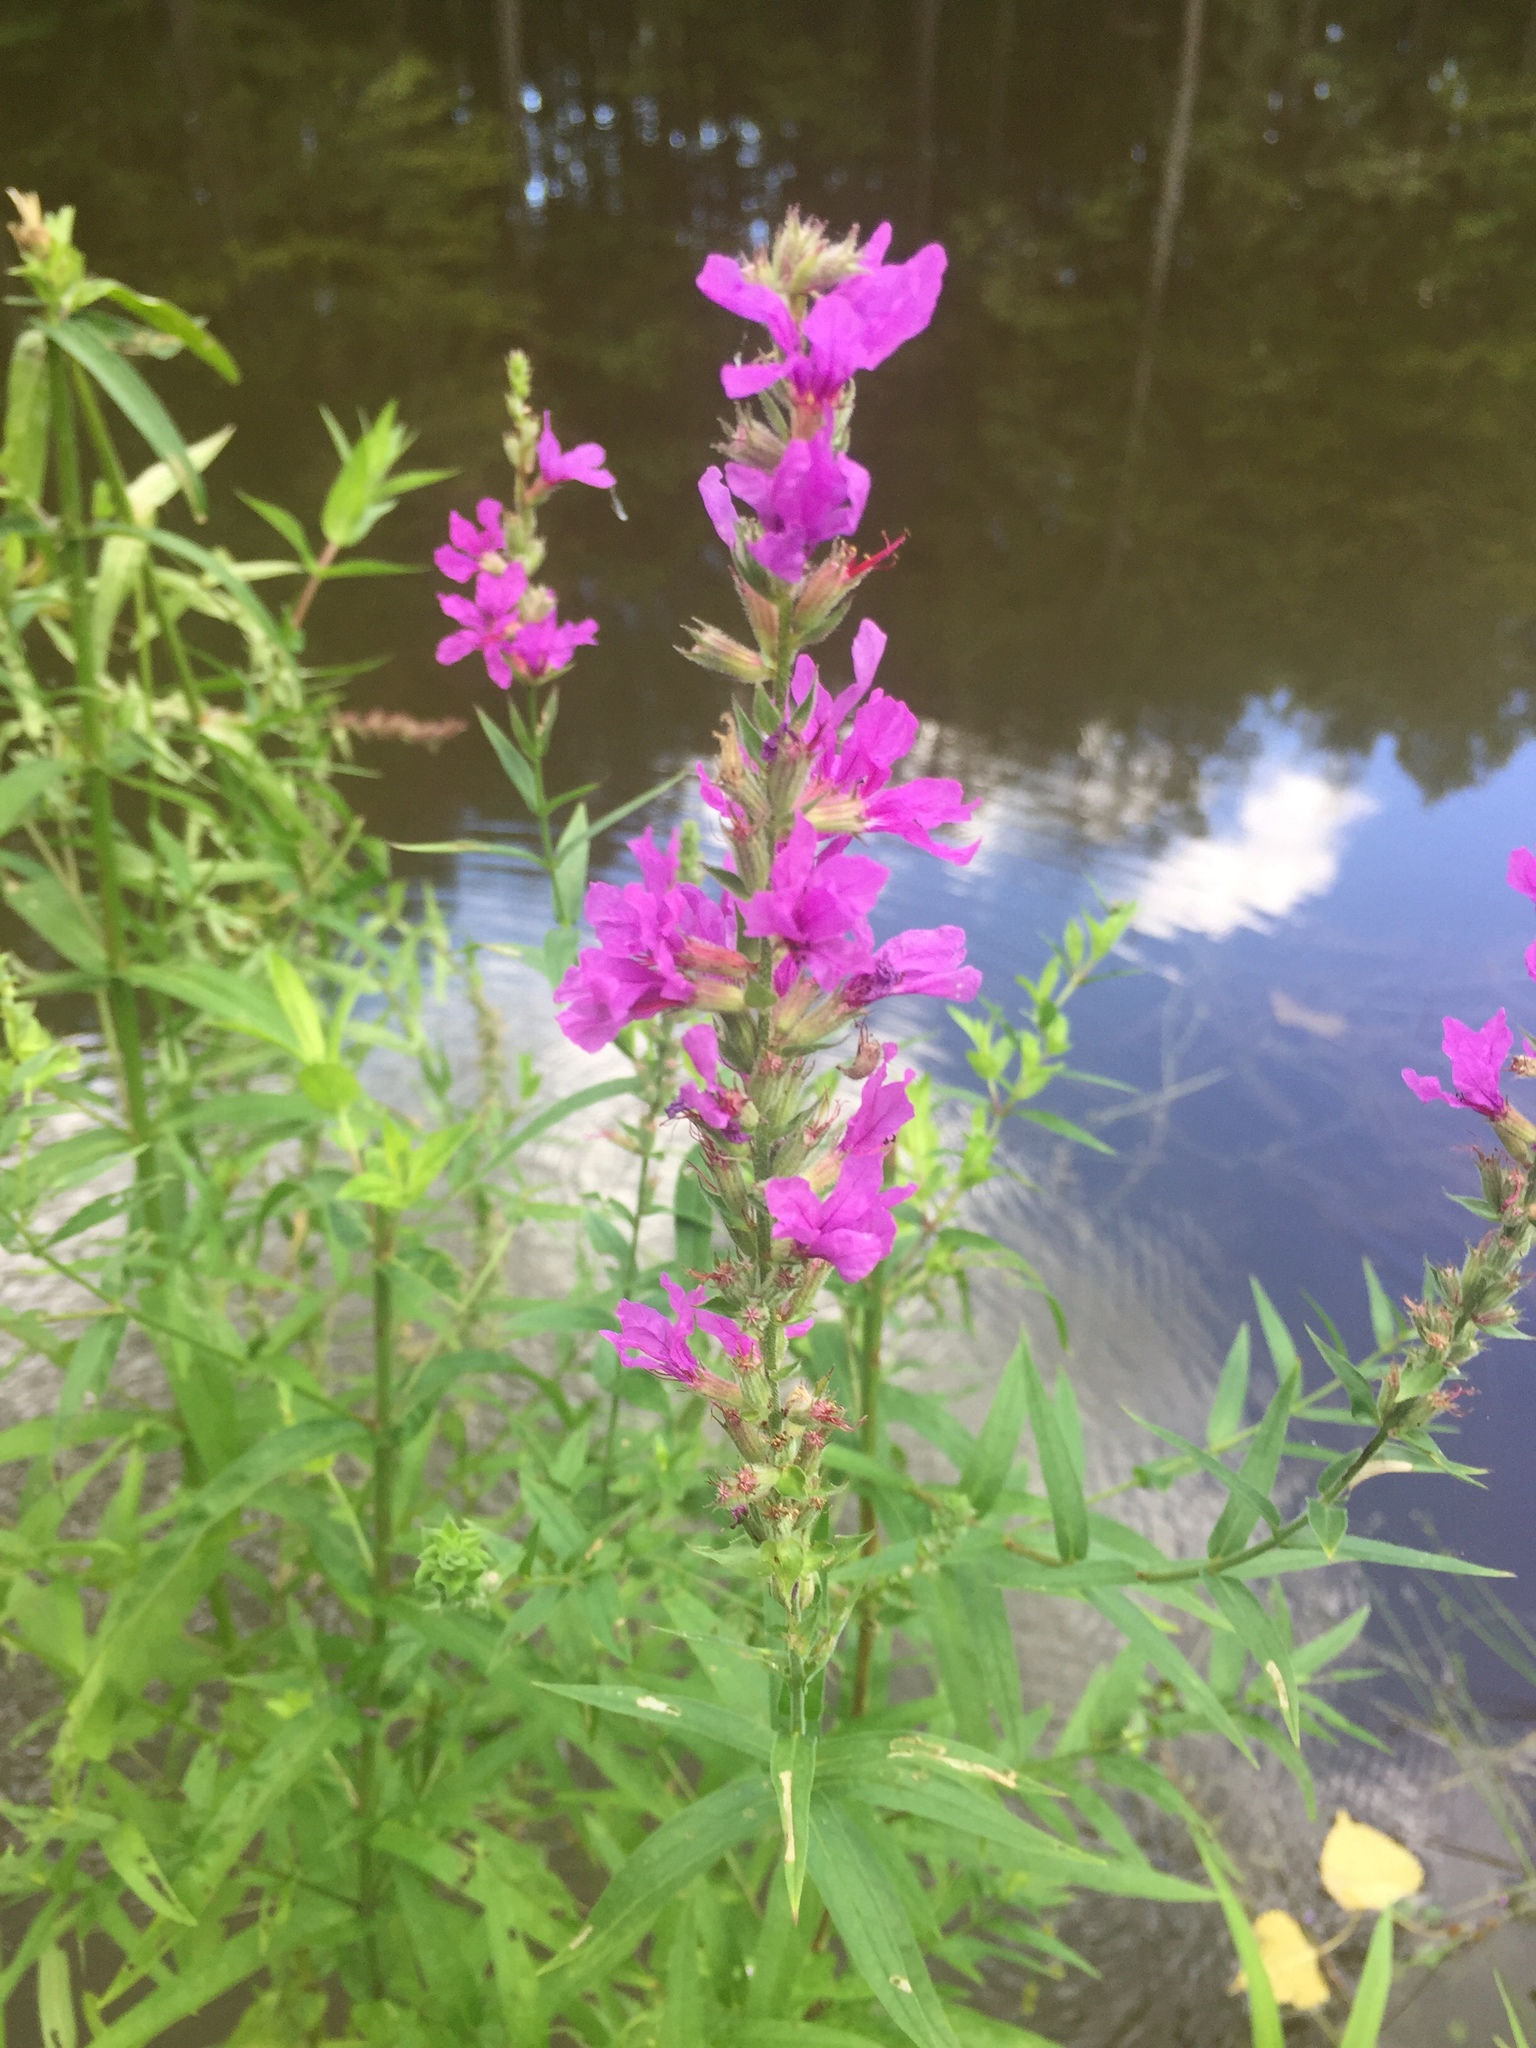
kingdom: Plantae
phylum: Tracheophyta
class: Magnoliopsida
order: Myrtales
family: Lythraceae
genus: Lythrum
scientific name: Lythrum salicaria
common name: Purple loosestrife
